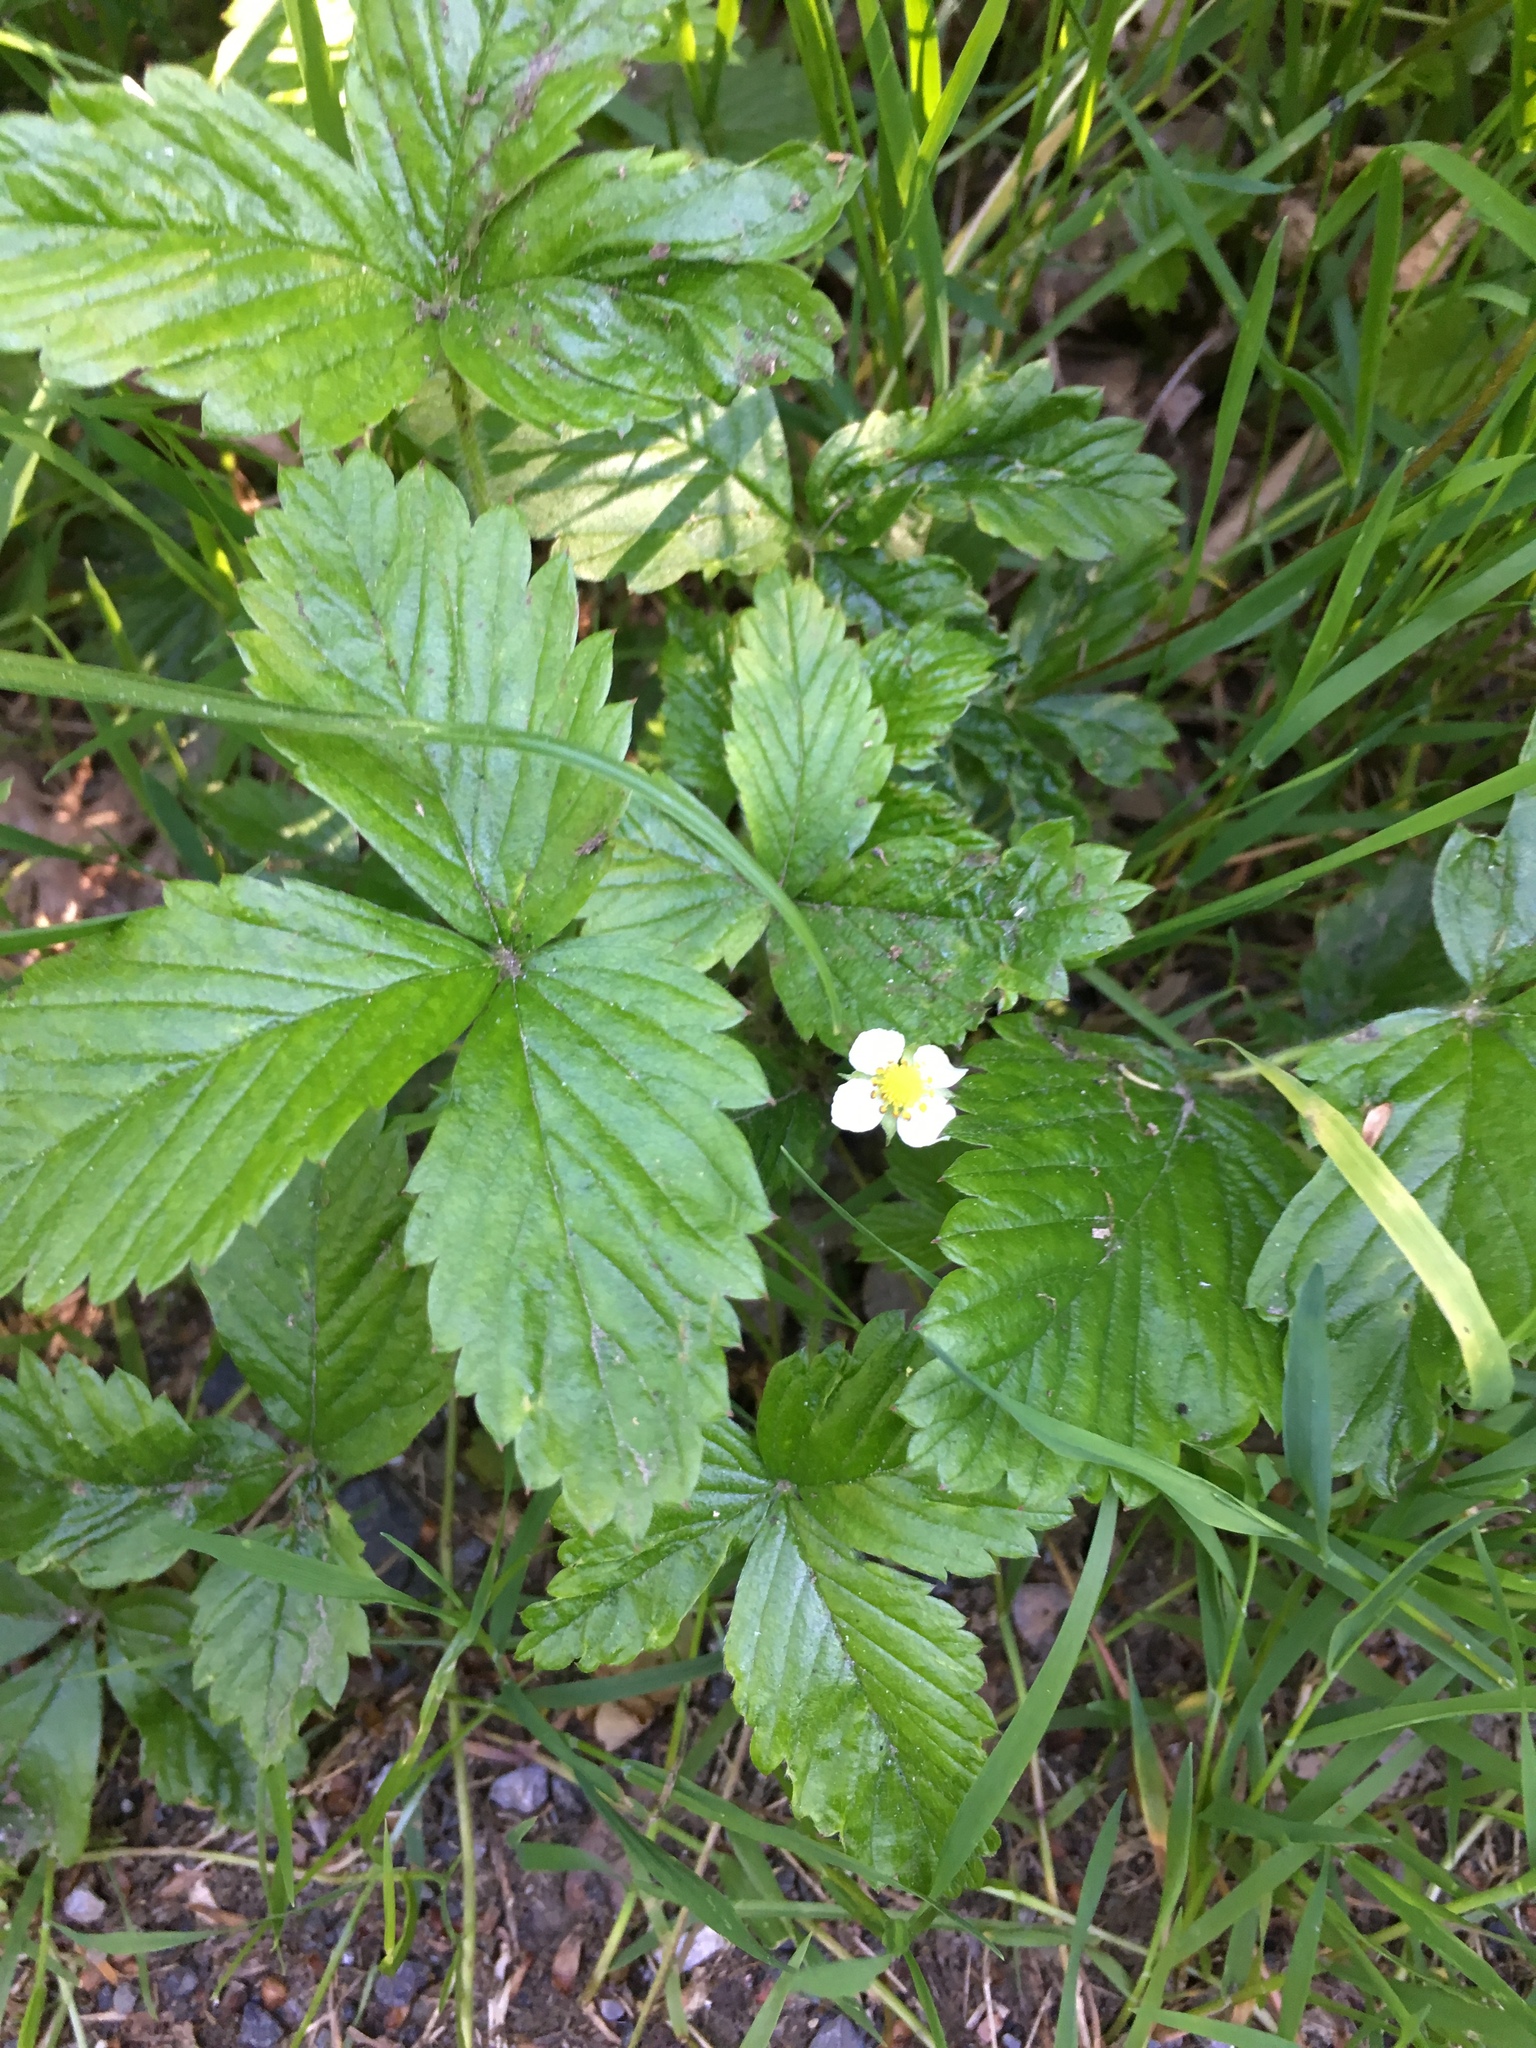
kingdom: Plantae
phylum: Tracheophyta
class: Magnoliopsida
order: Rosales
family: Rosaceae
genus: Fragaria
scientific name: Fragaria vesca
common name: Wild strawberry
